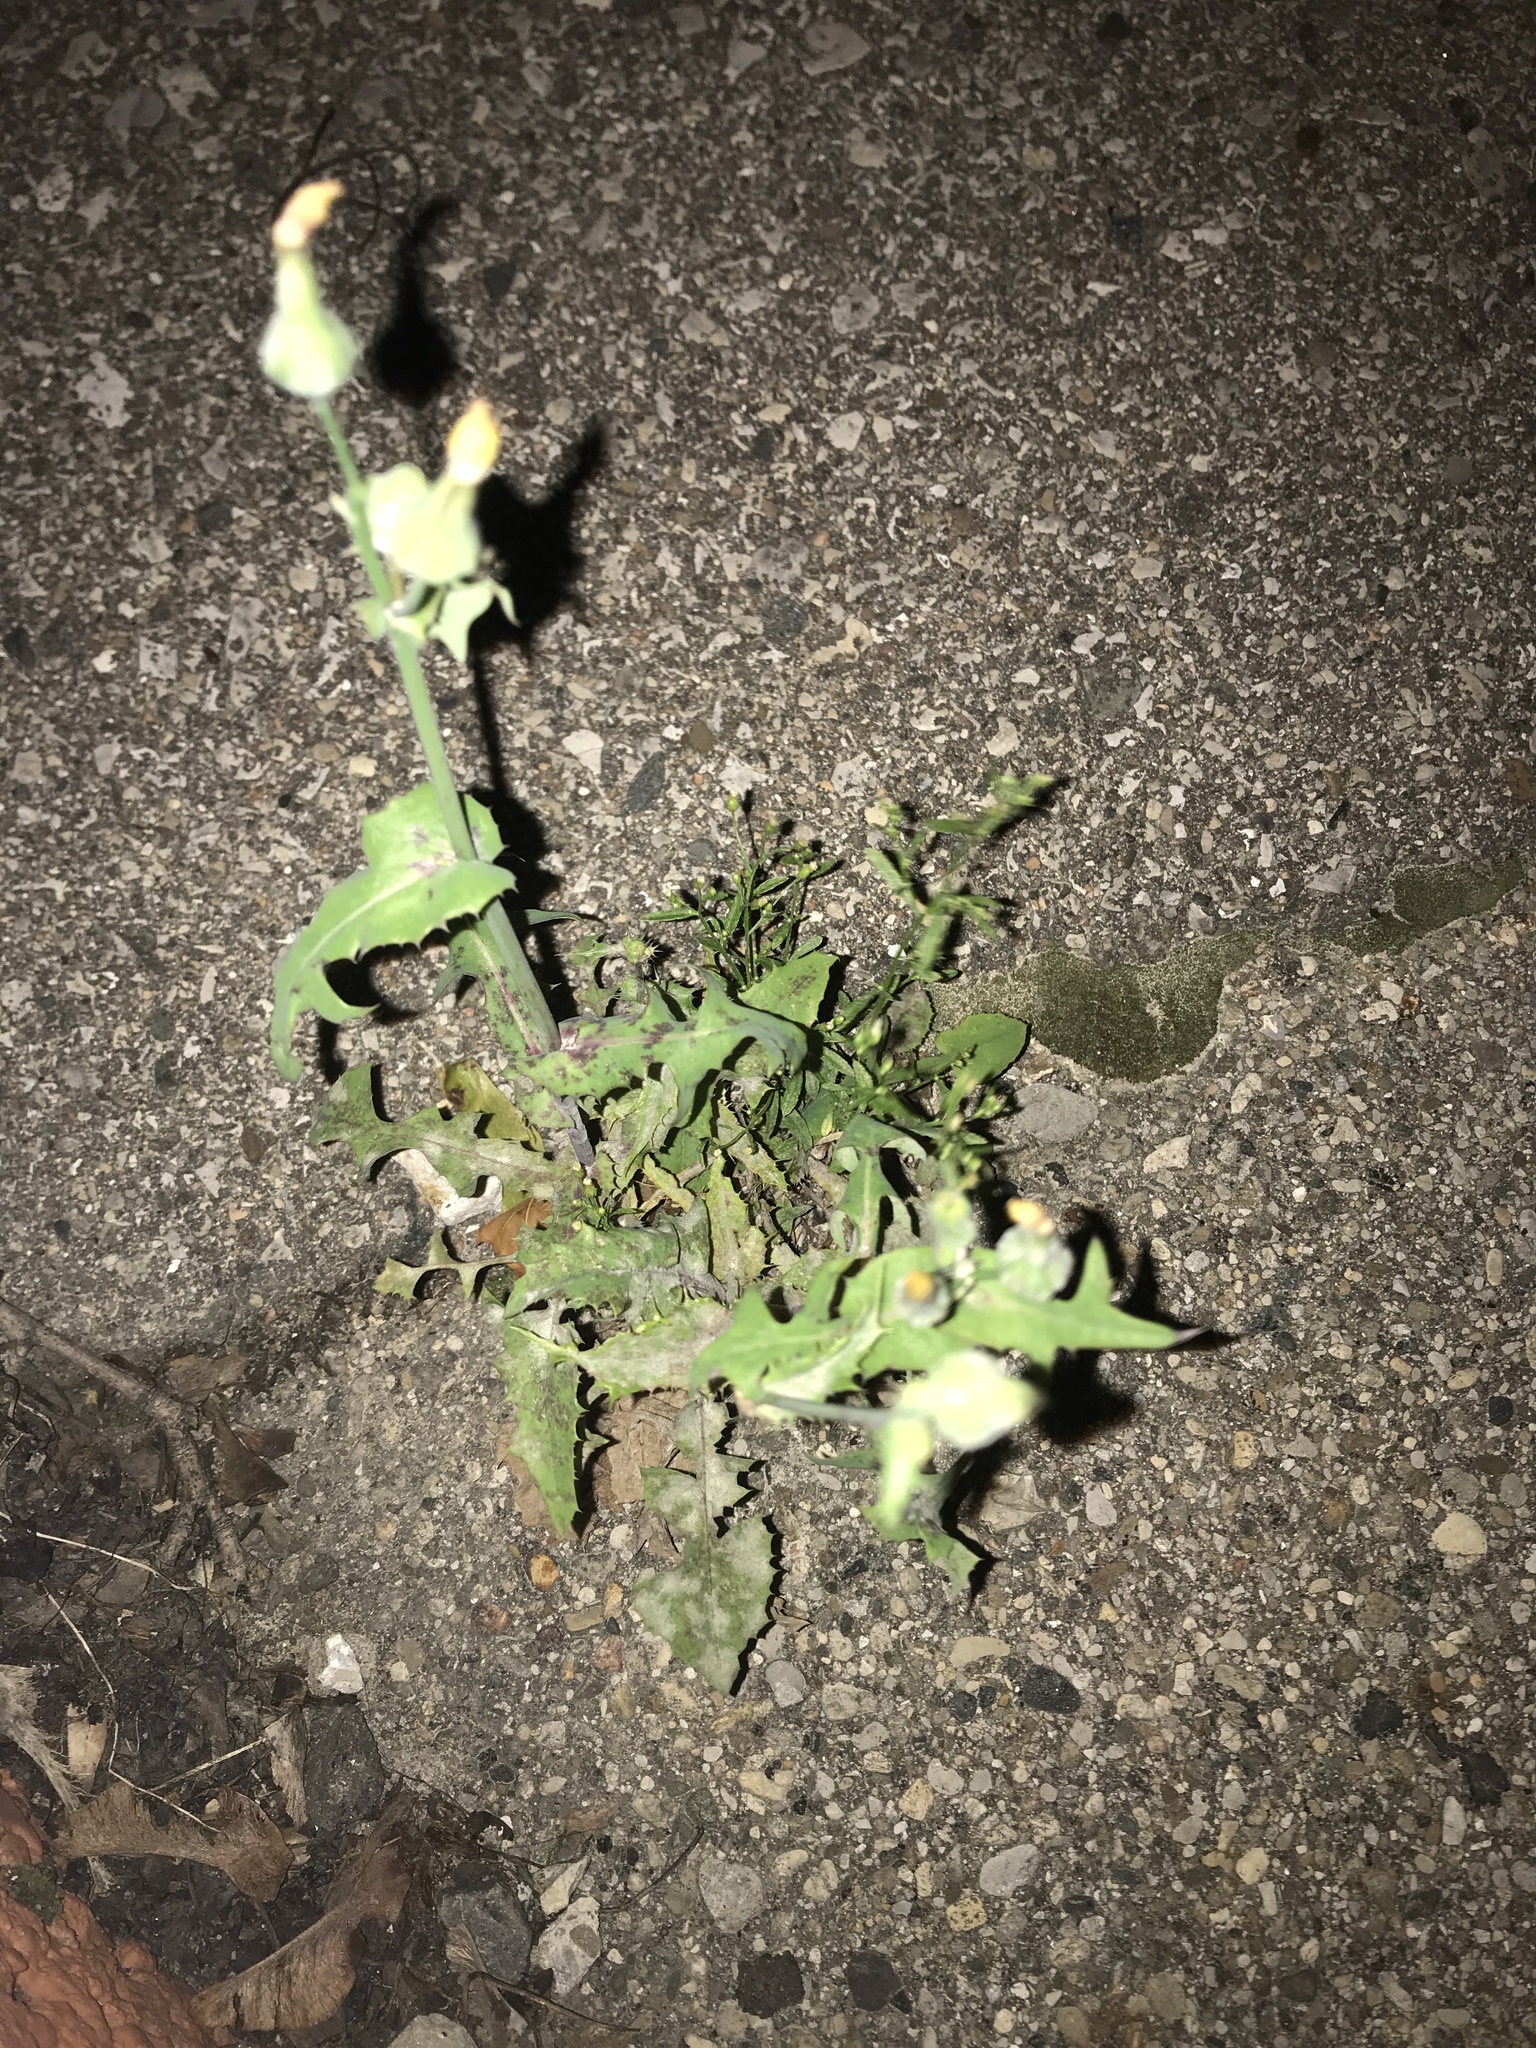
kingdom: Plantae
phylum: Tracheophyta
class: Magnoliopsida
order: Asterales
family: Asteraceae
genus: Sonchus
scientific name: Sonchus oleraceus
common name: Common sowthistle
